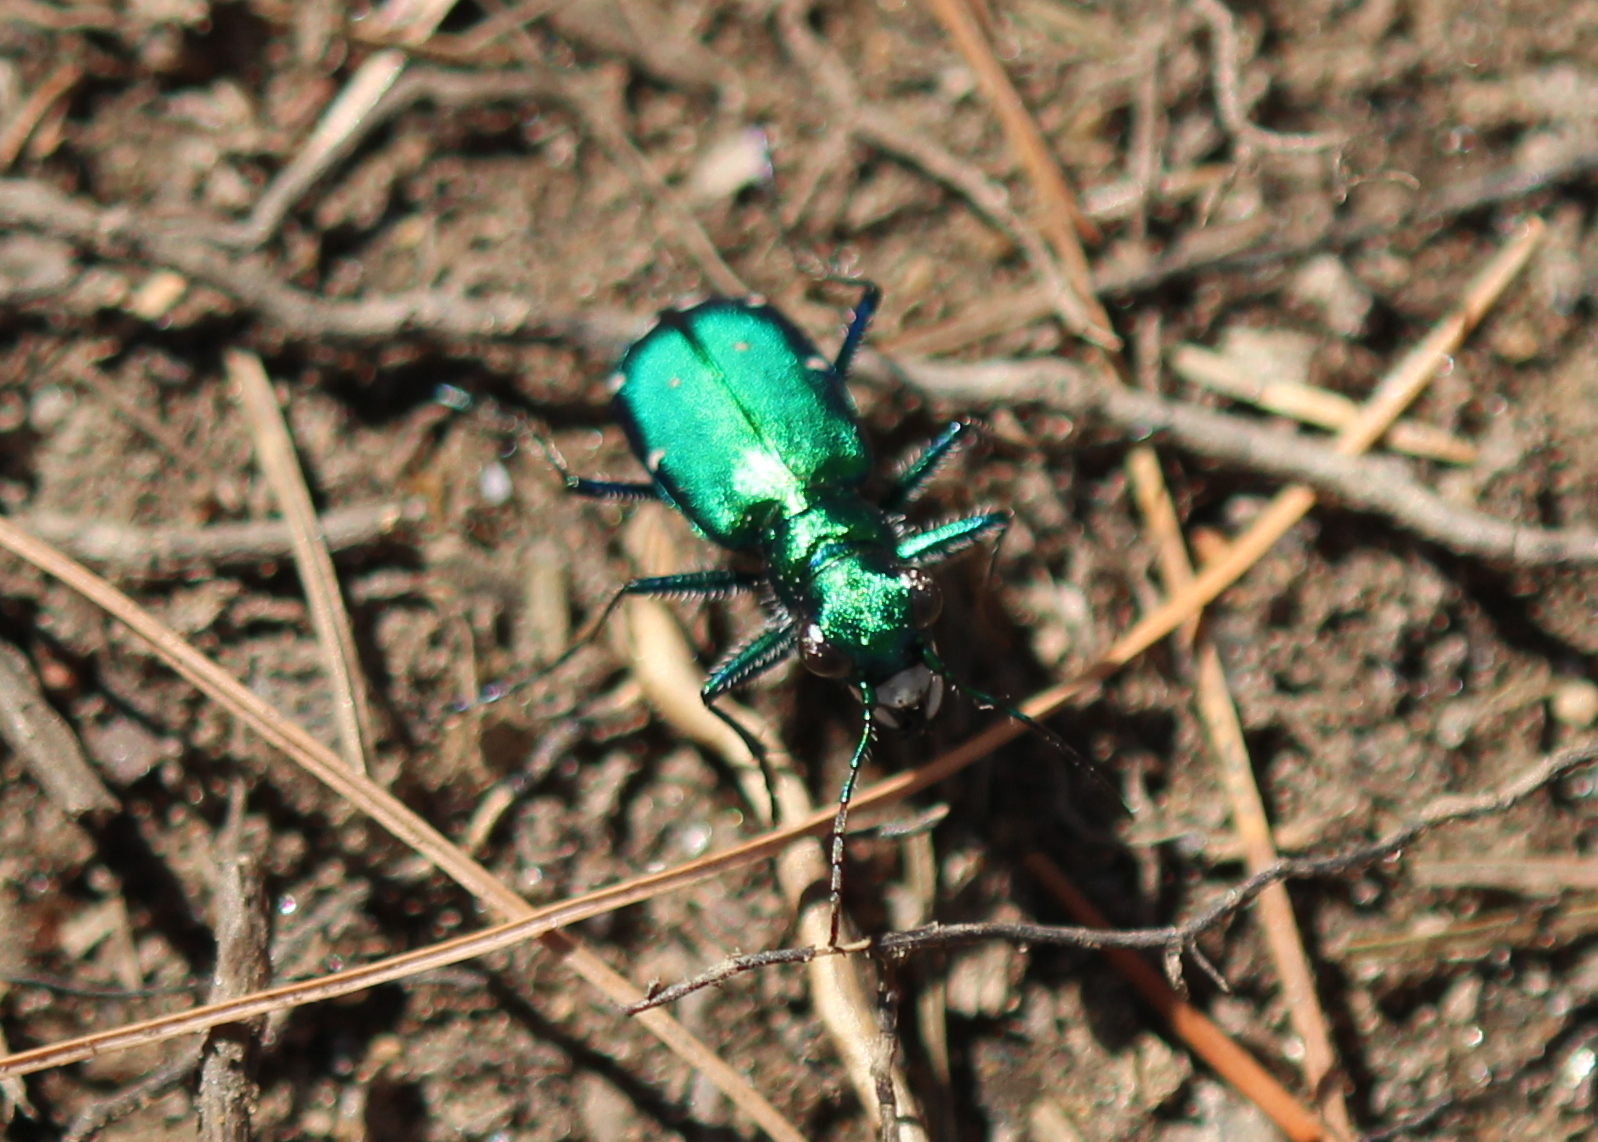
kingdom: Animalia
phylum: Arthropoda
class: Insecta
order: Coleoptera
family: Carabidae
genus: Cicindela
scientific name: Cicindela sexguttata
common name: Six-spotted tiger beetle
